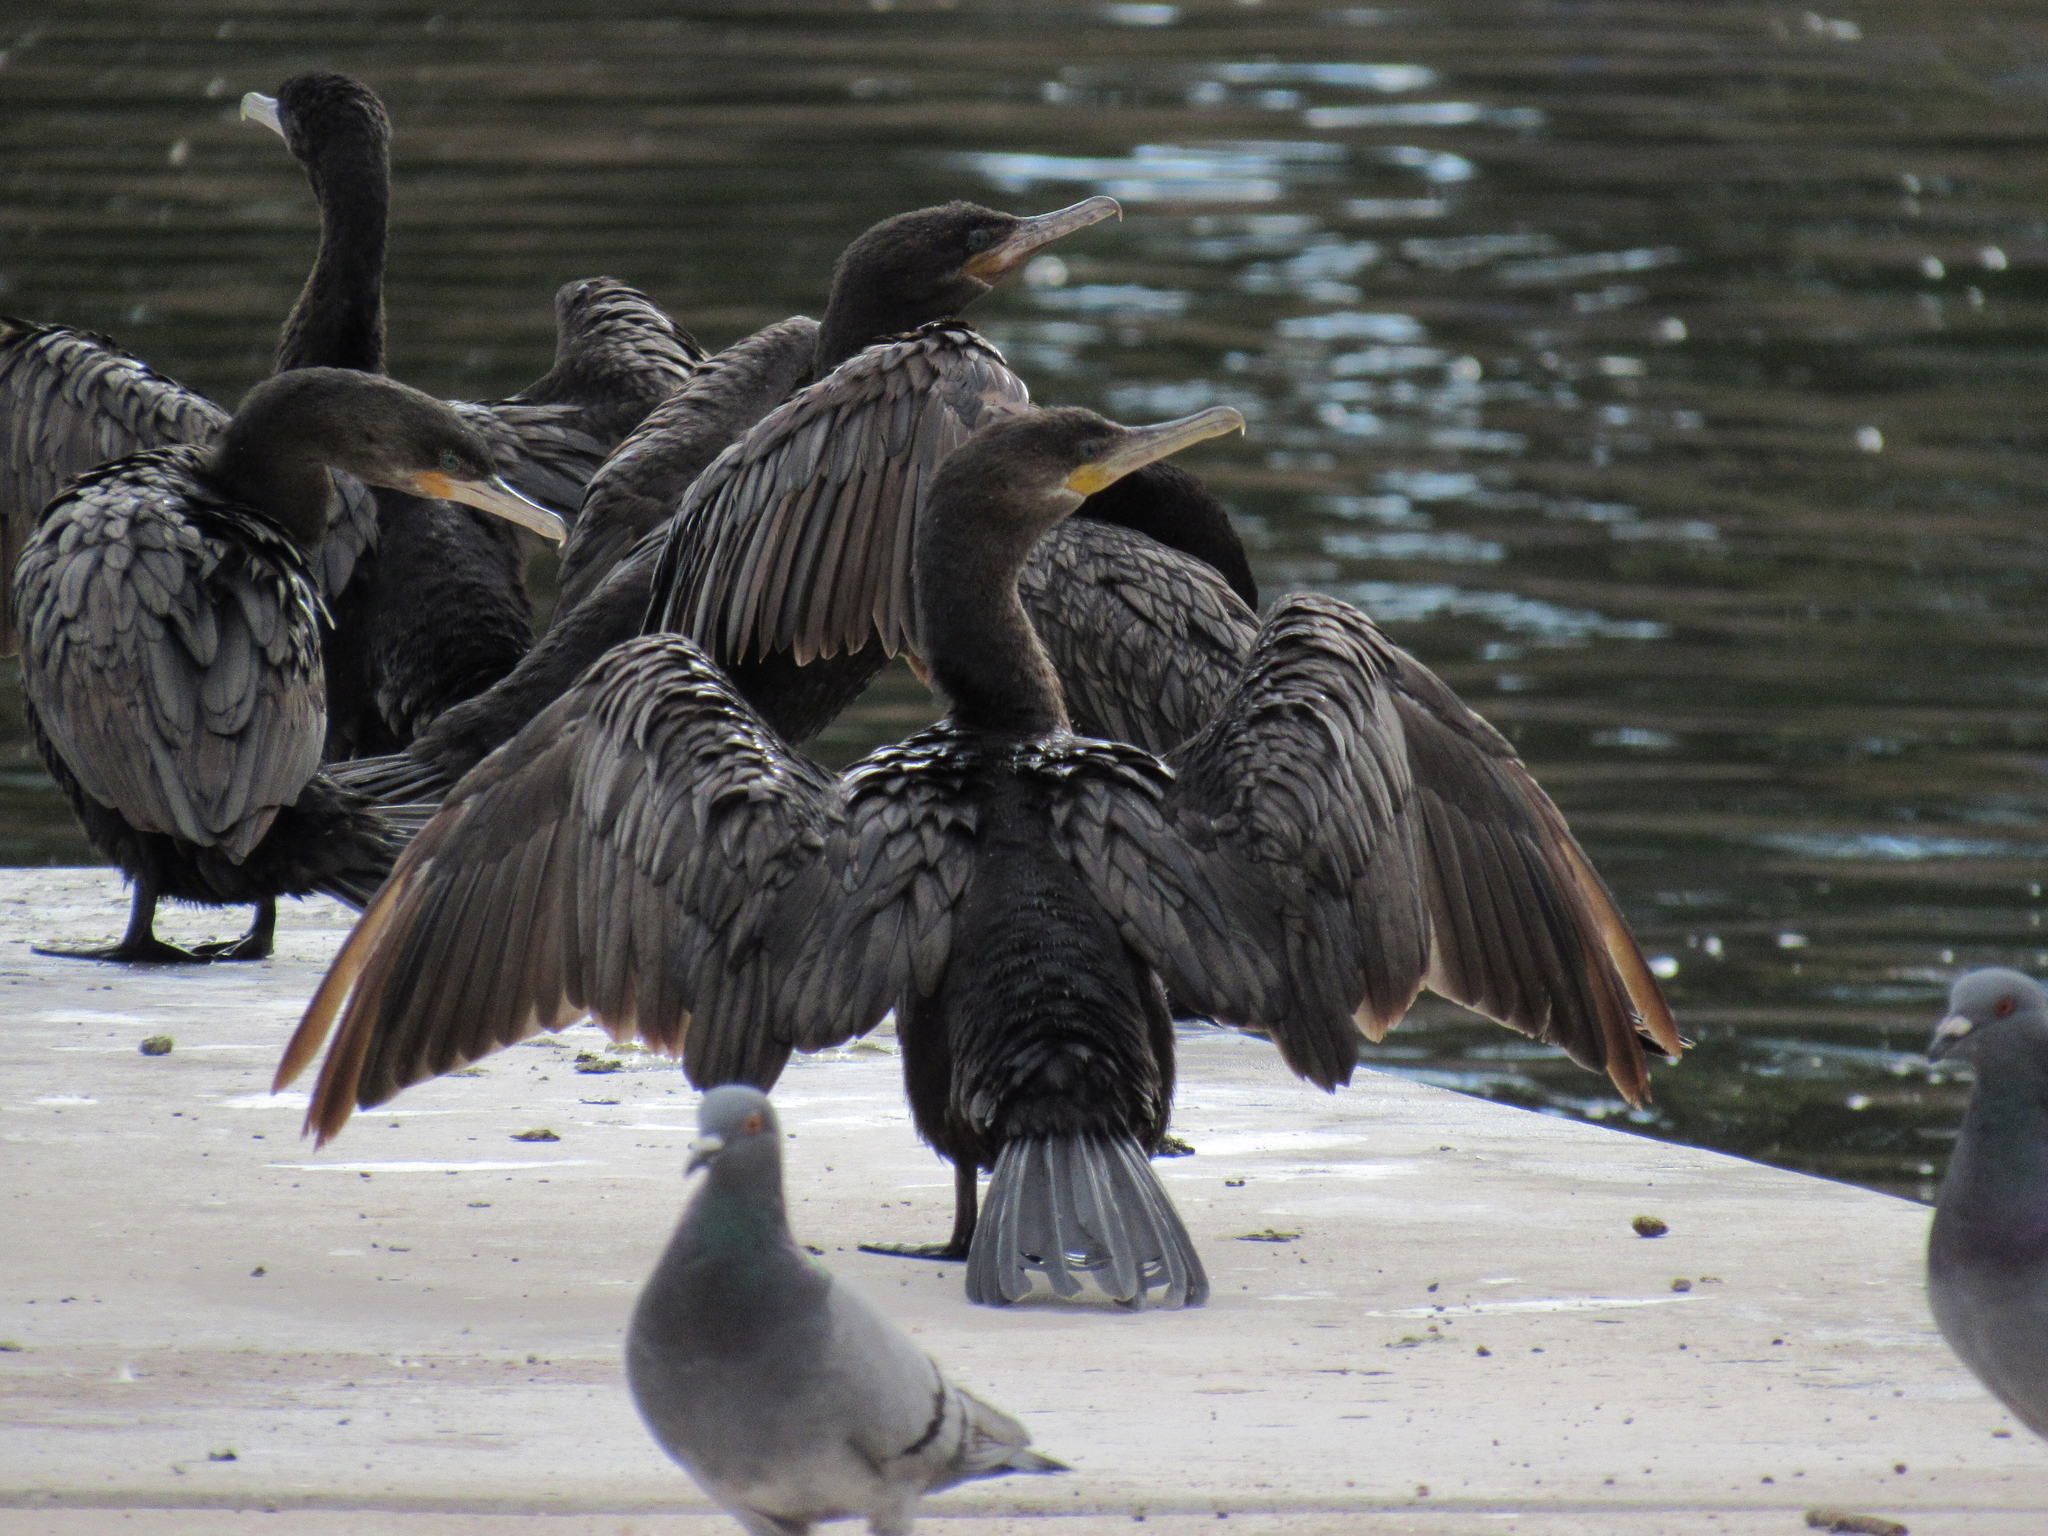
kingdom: Animalia
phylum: Chordata
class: Aves
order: Suliformes
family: Phalacrocoracidae
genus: Phalacrocorax
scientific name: Phalacrocorax brasilianus
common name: Neotropic cormorant
